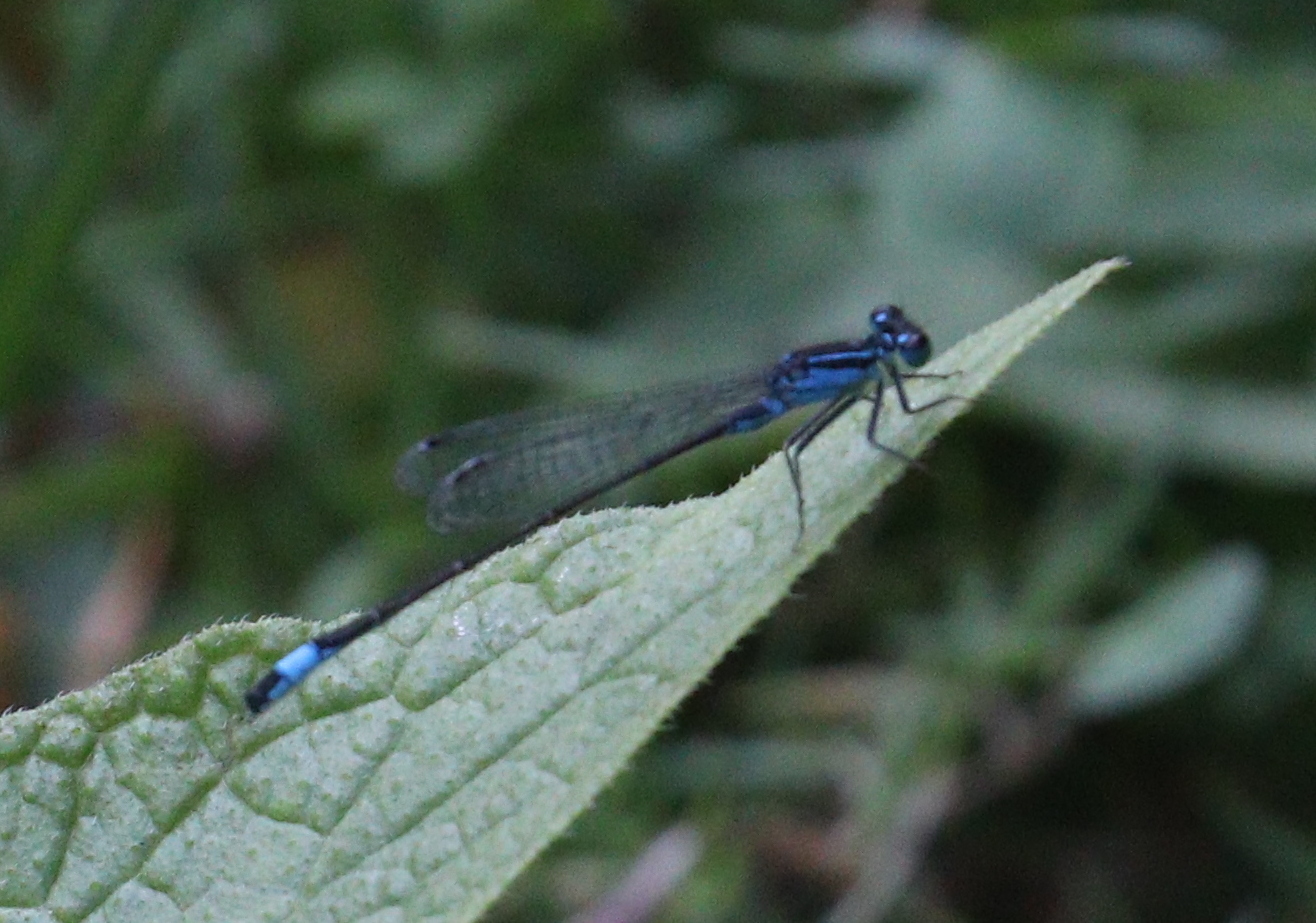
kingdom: Animalia
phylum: Arthropoda
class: Insecta
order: Odonata
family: Coenagrionidae
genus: Ischnura
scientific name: Ischnura elegans
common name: Blue-tailed damselfly
